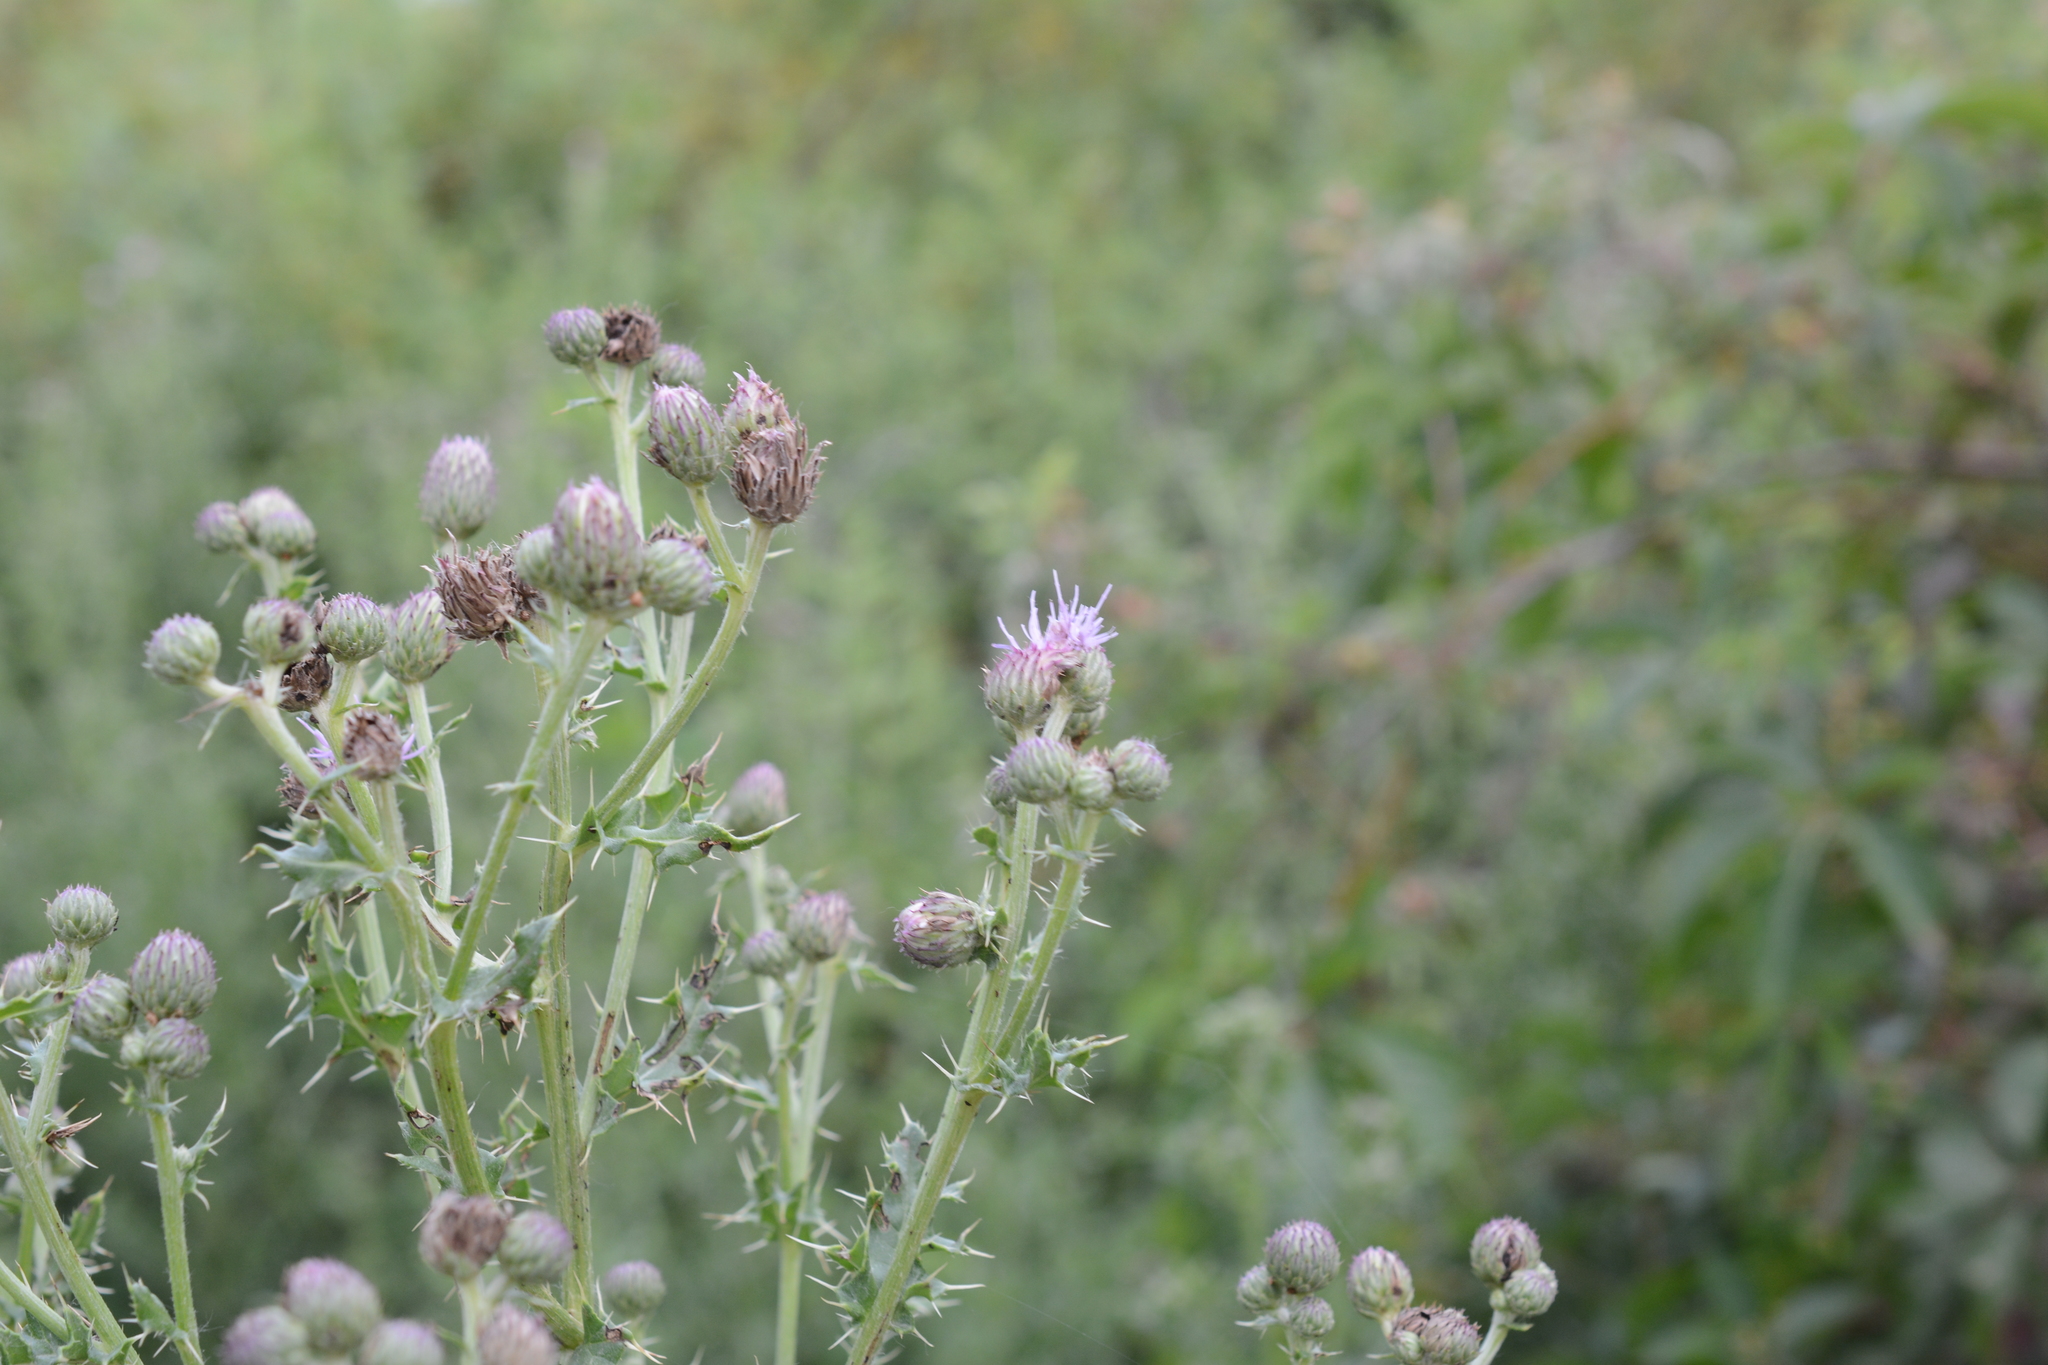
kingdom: Plantae
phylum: Tracheophyta
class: Magnoliopsida
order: Asterales
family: Asteraceae
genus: Cirsium
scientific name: Cirsium arvense
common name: Creeping thistle
